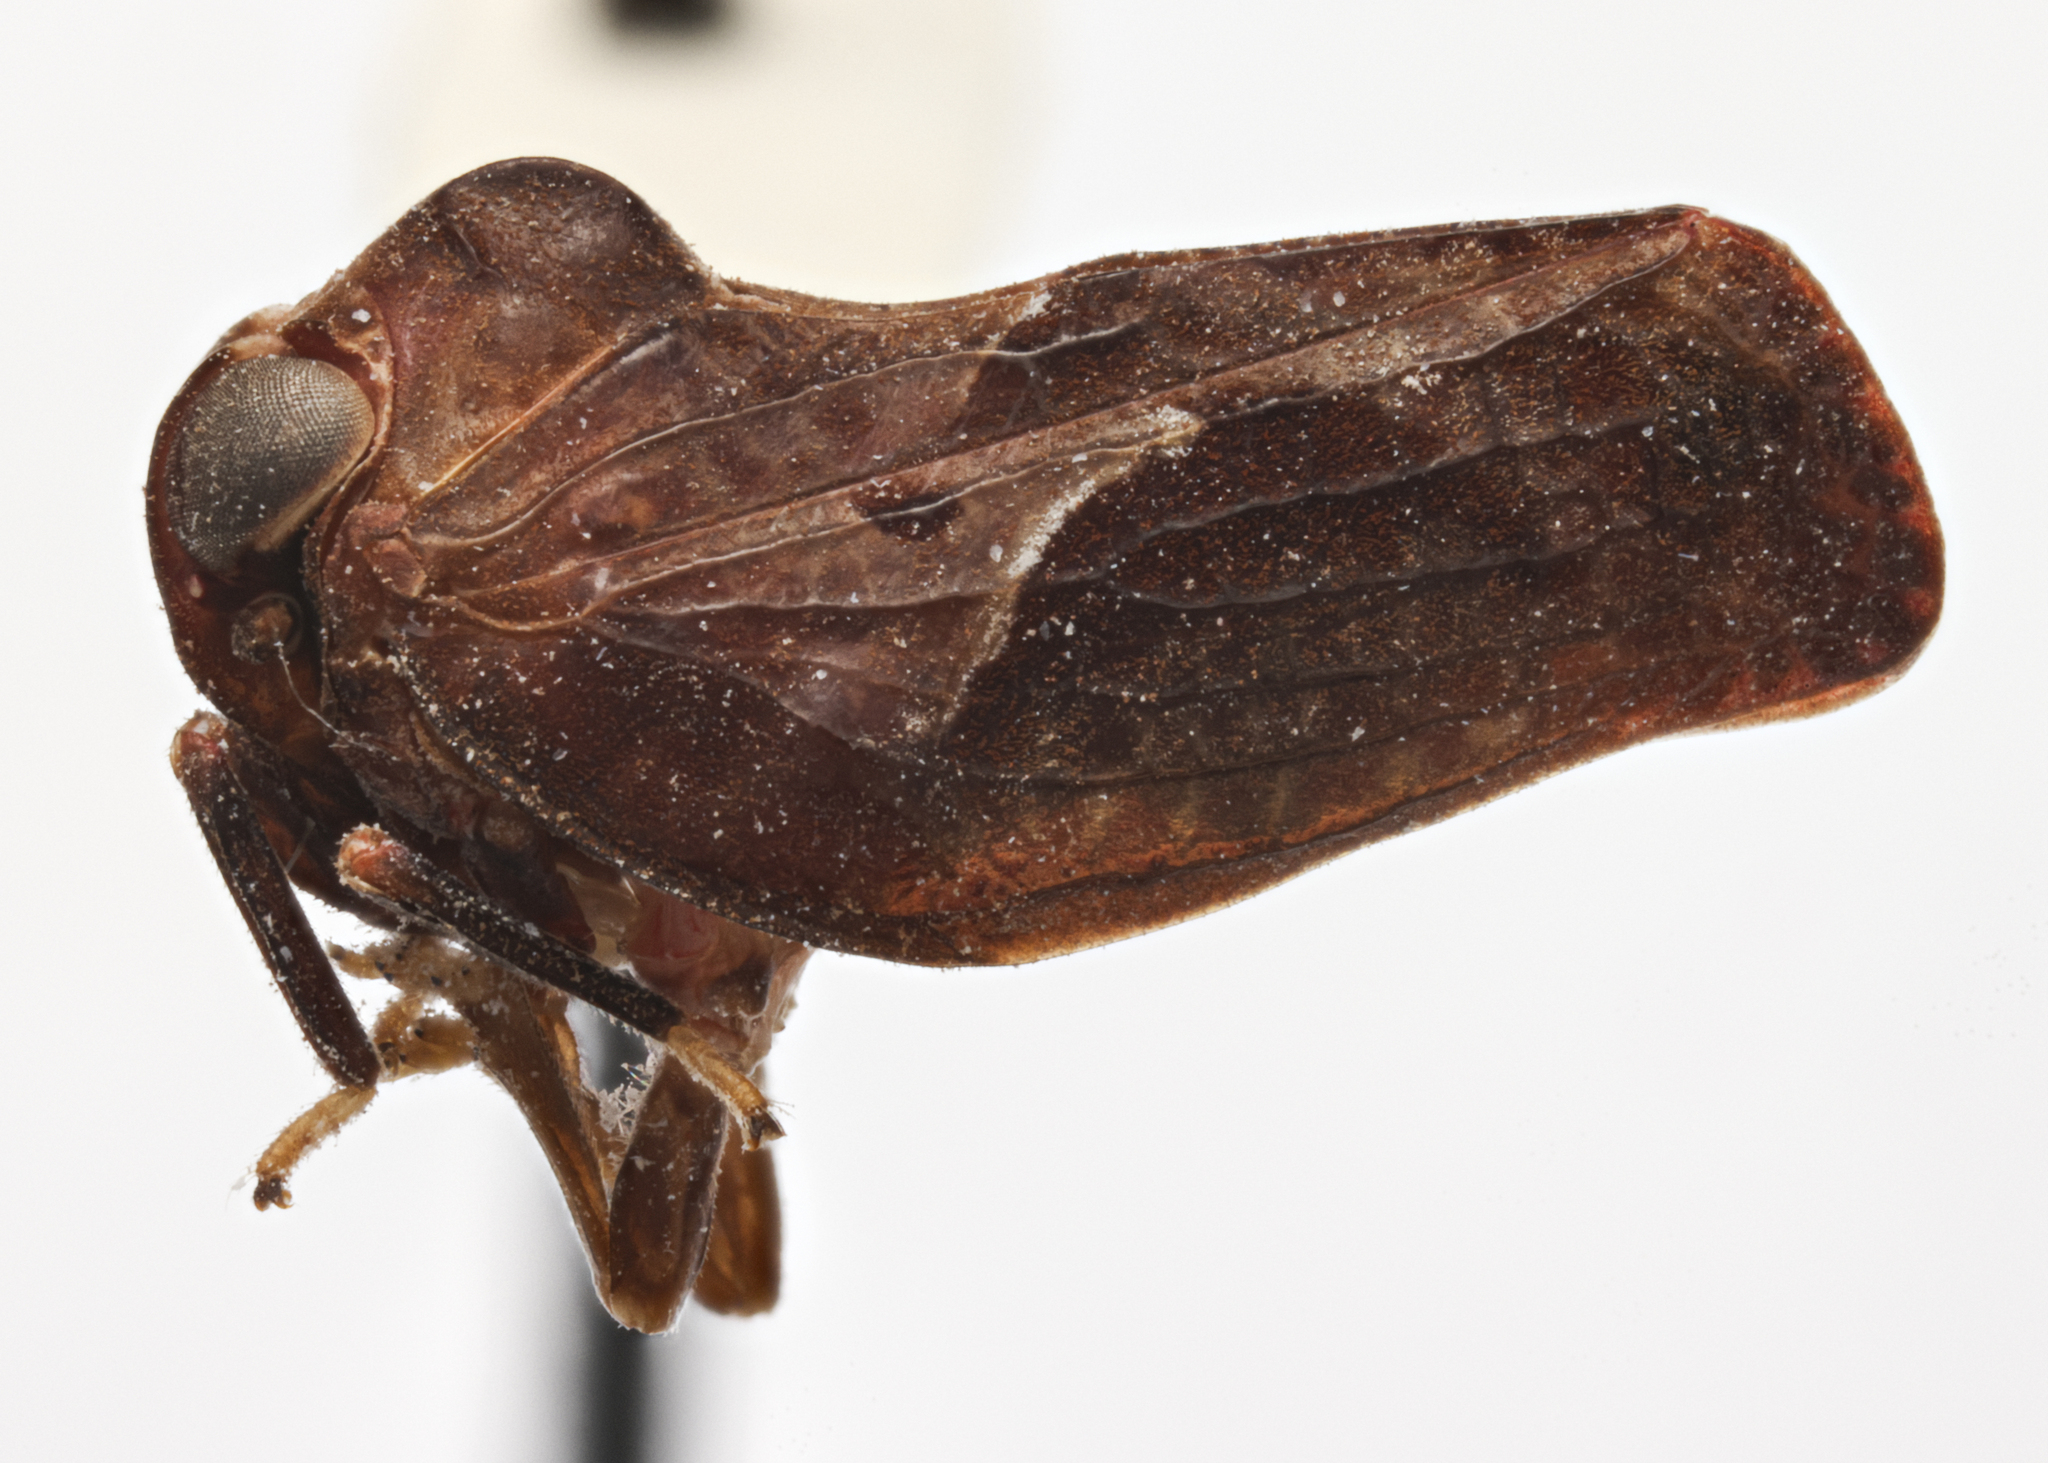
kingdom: Animalia
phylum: Arthropoda
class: Insecta
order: Hemiptera
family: Nogodinidae
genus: Dozierana
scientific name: Dozierana gibbicollis
